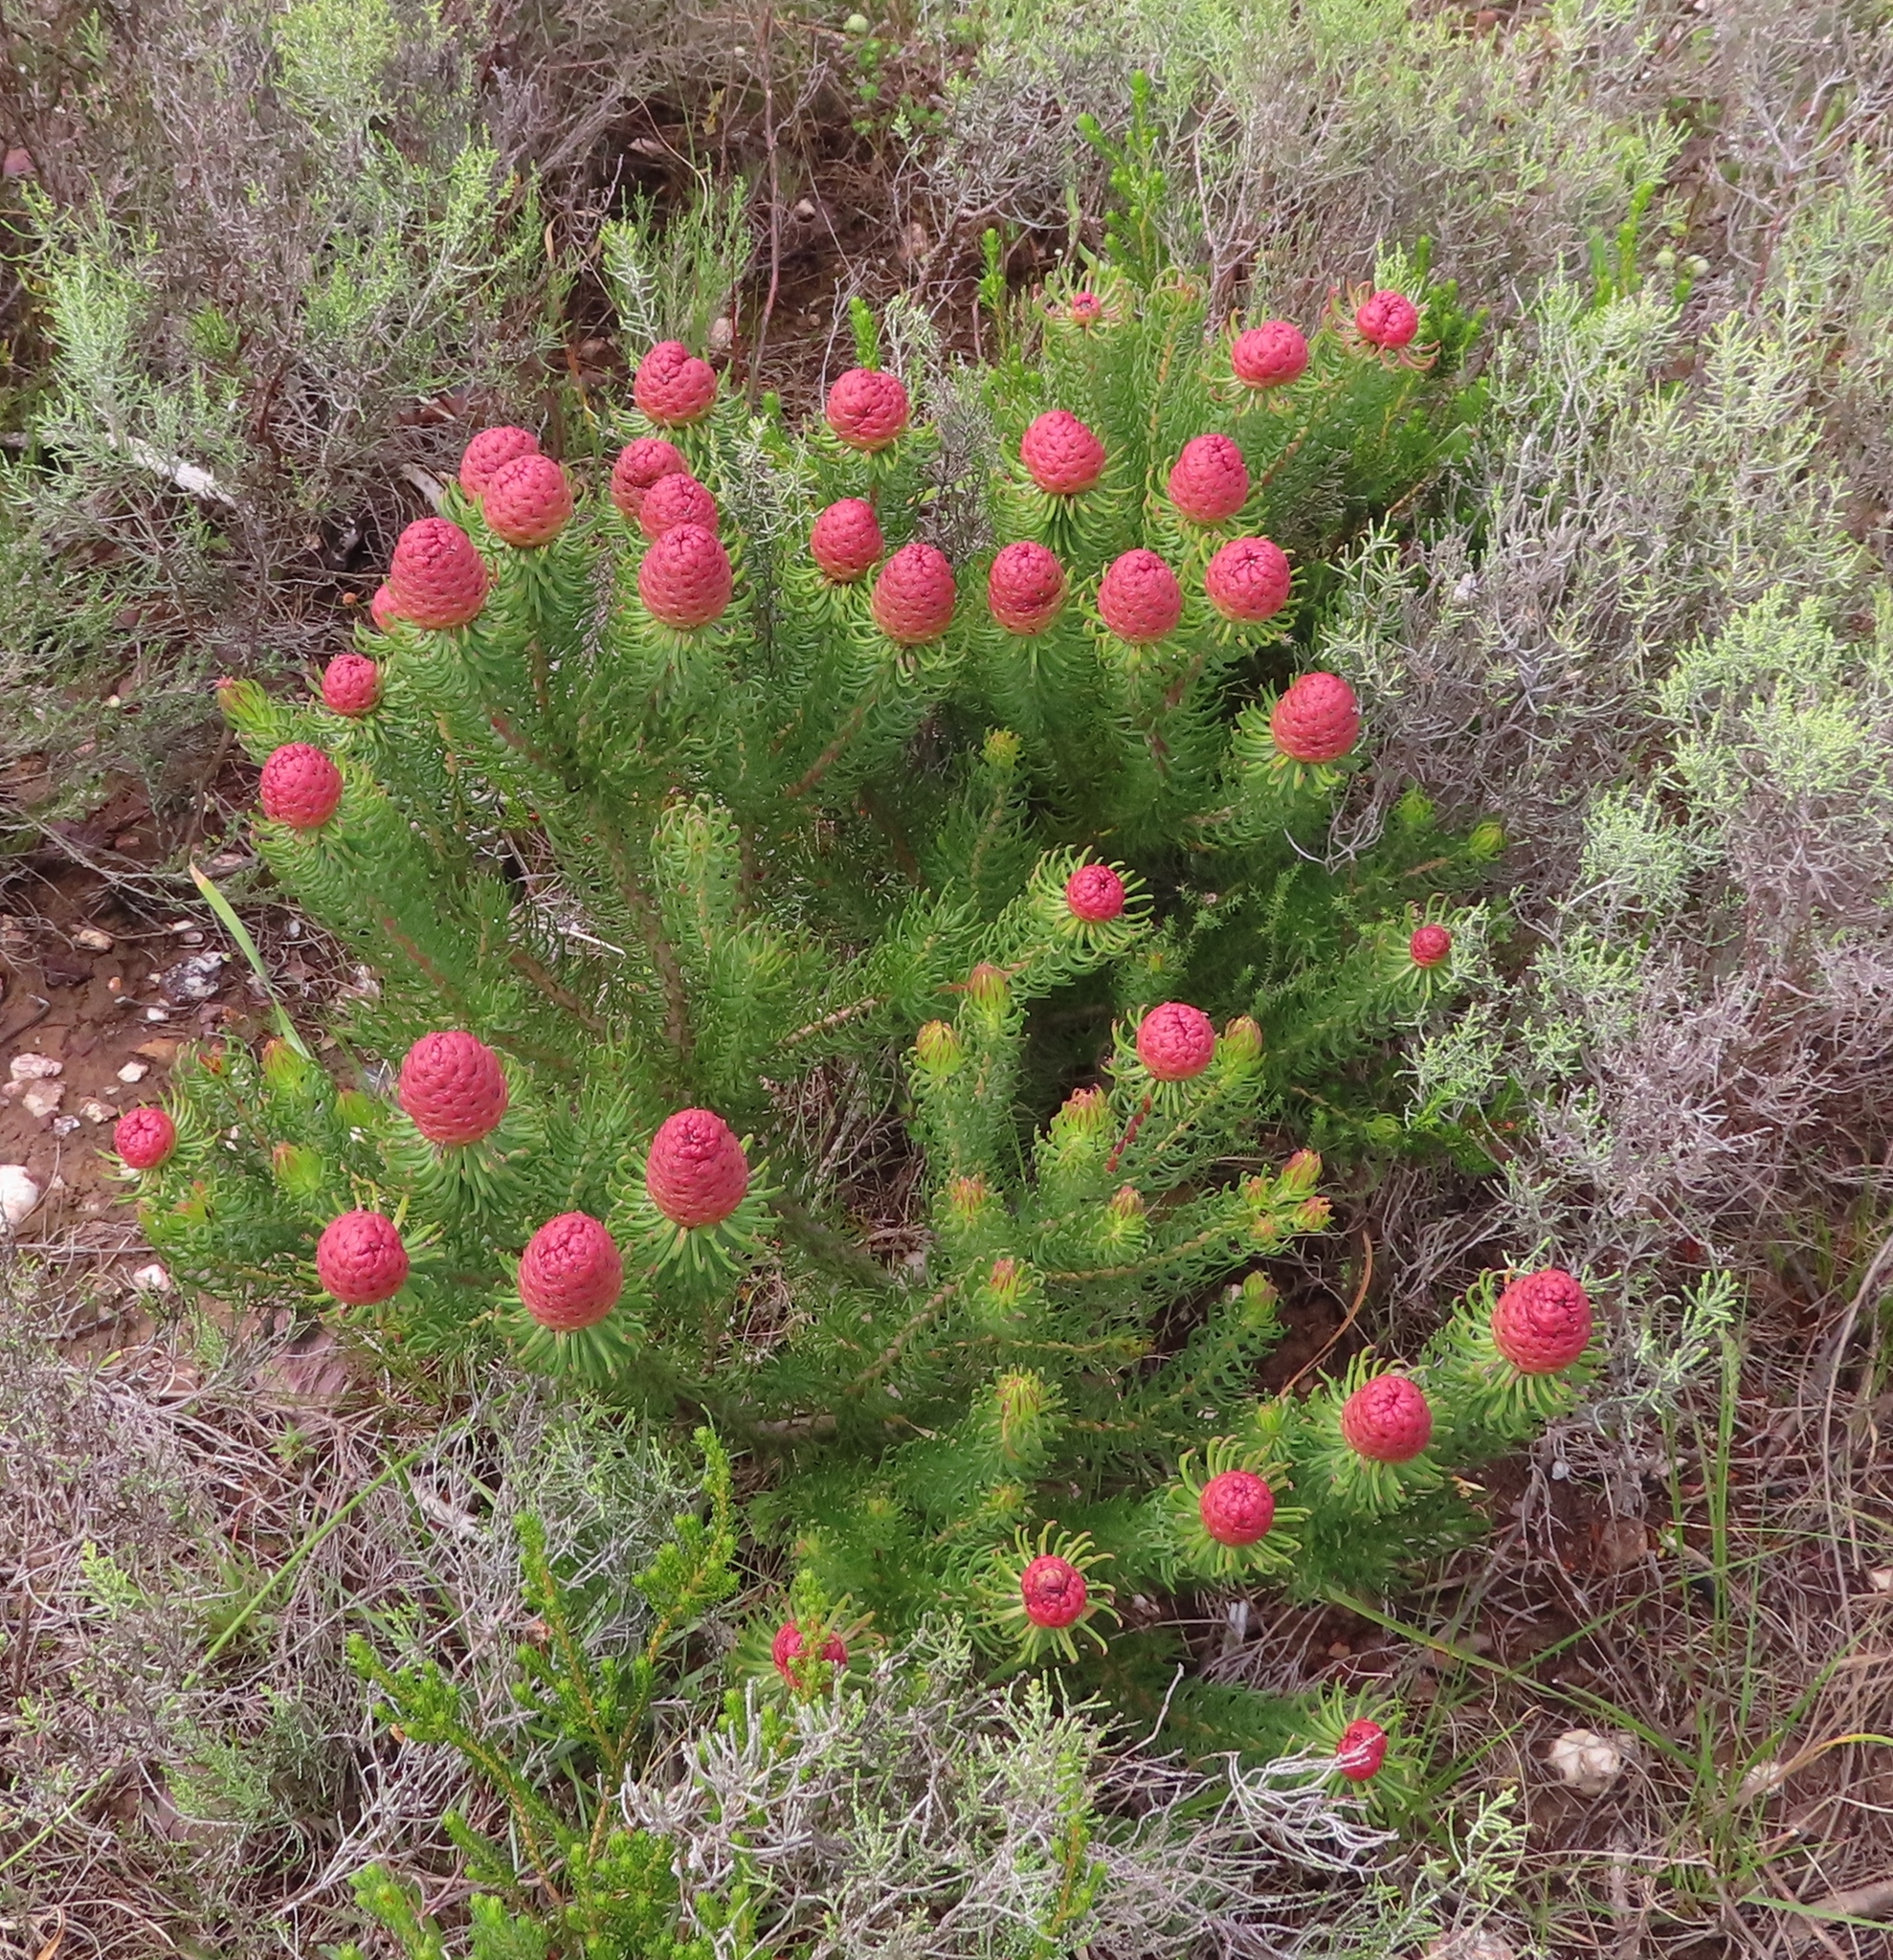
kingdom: Plantae
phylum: Tracheophyta
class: Magnoliopsida
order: Proteales
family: Proteaceae
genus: Leucadendron
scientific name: Leucadendron teretifolium
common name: Needle-leaf conebush
